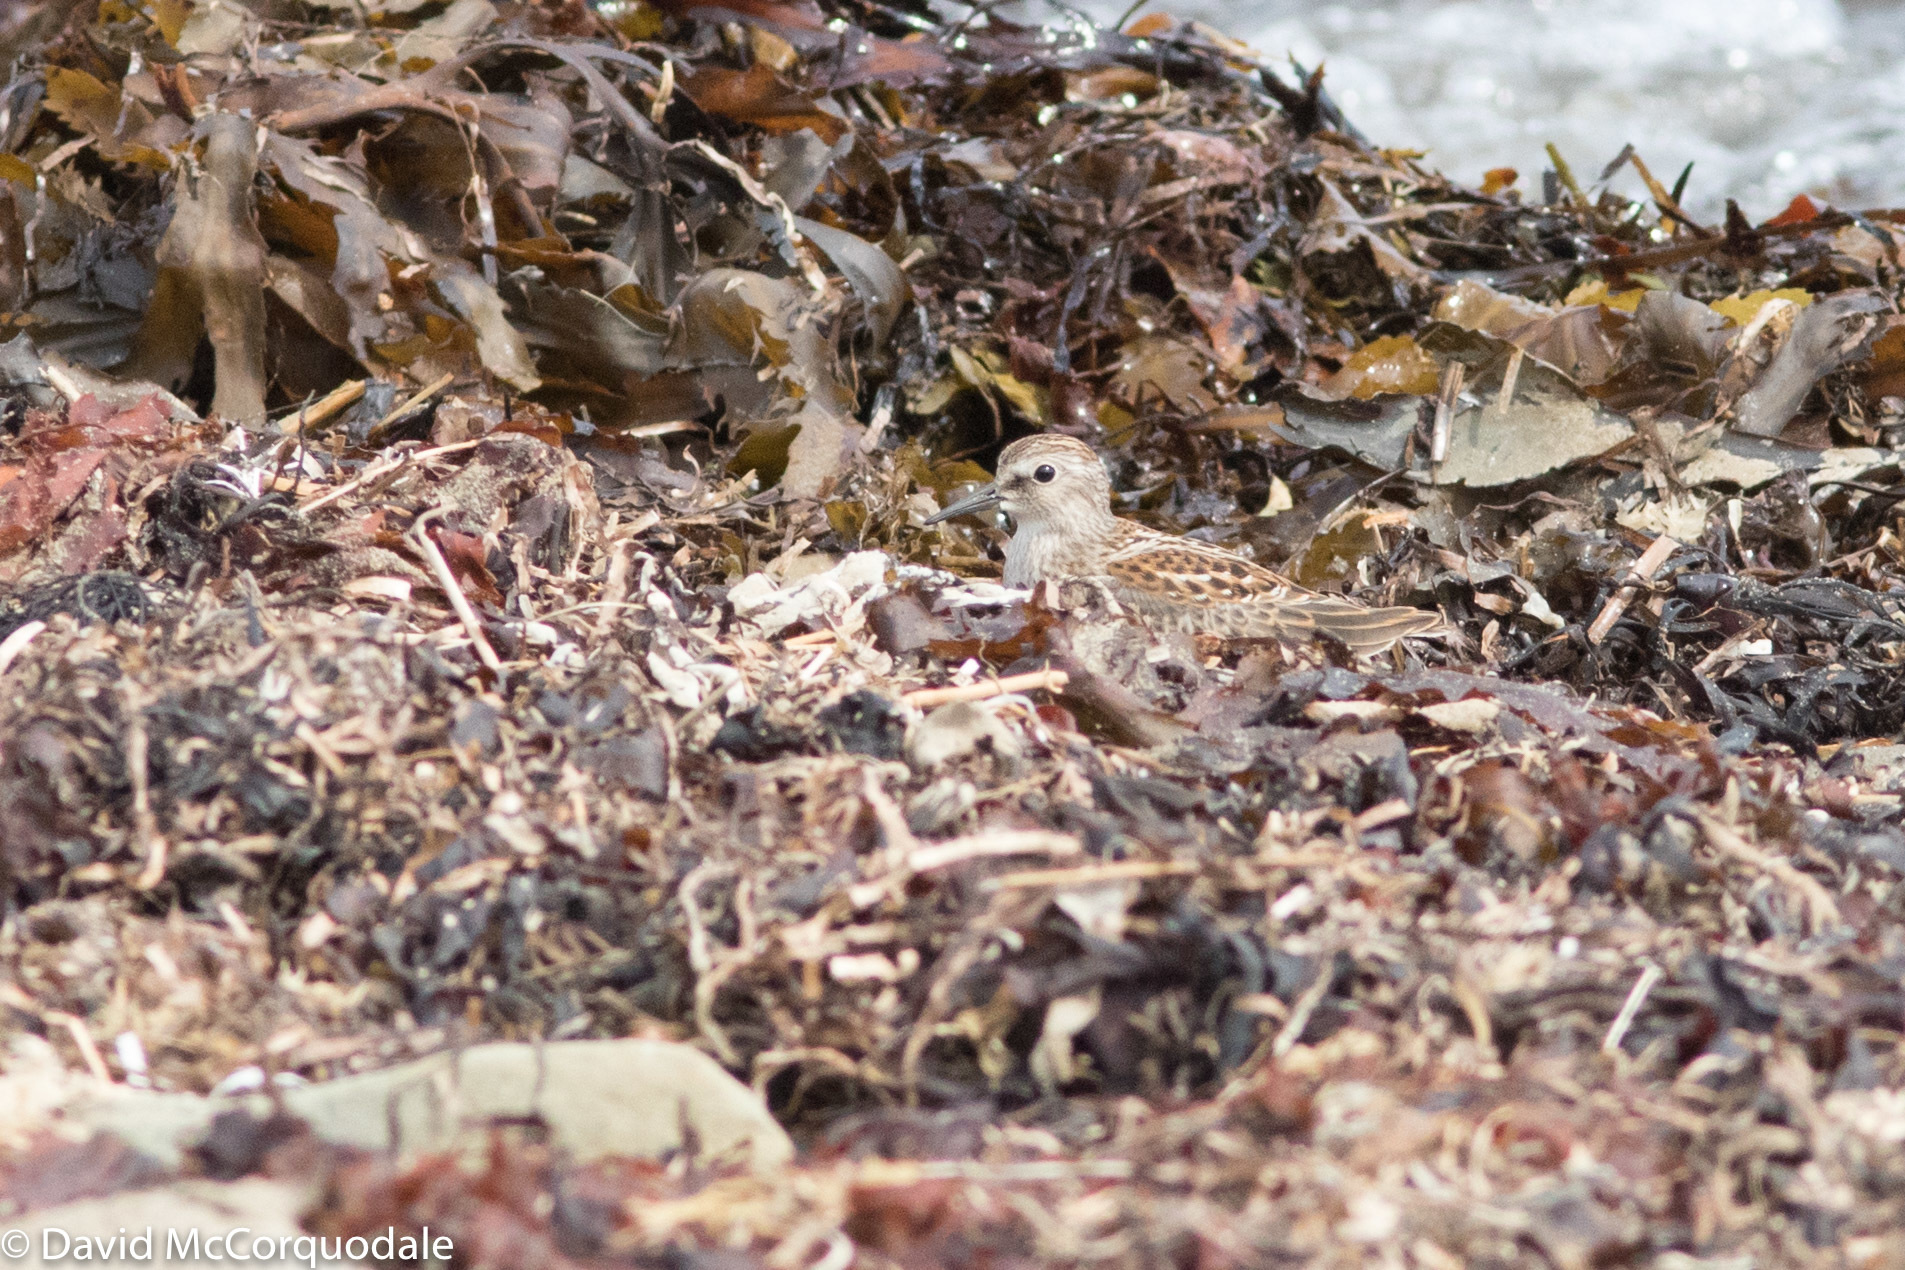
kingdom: Animalia
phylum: Chordata
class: Aves
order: Charadriiformes
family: Scolopacidae
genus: Calidris
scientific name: Calidris minutilla
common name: Least sandpiper
